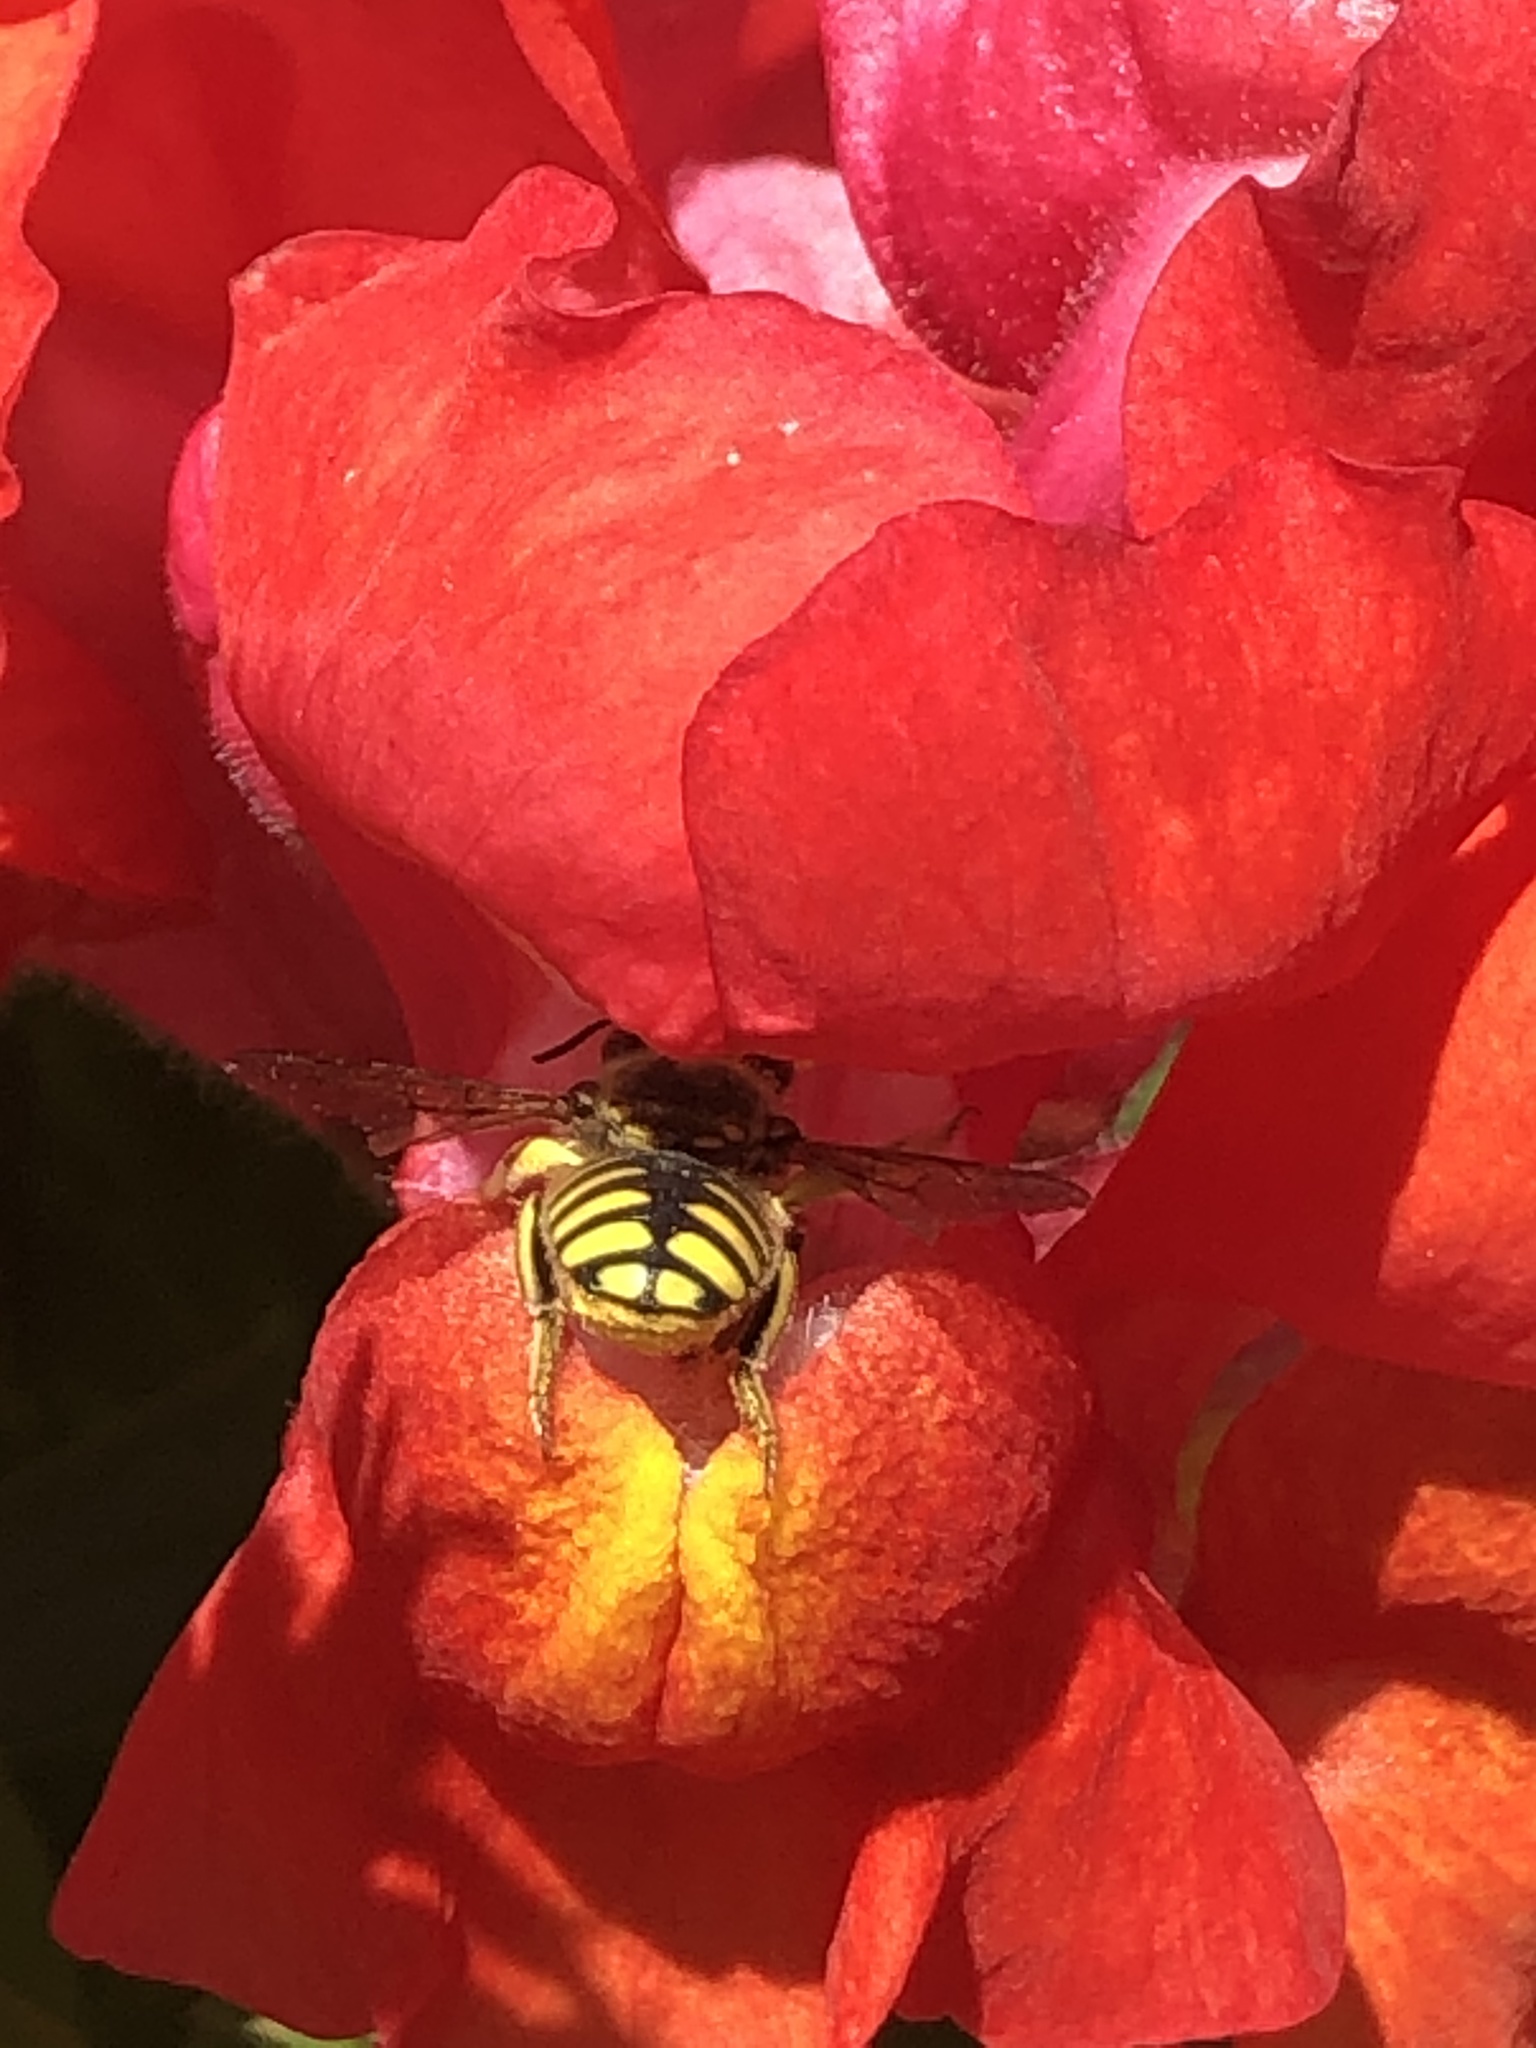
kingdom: Animalia
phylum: Arthropoda
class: Insecta
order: Hymenoptera
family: Megachilidae
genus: Anthidium
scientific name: Anthidium manicatum
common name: Wool carder bee
